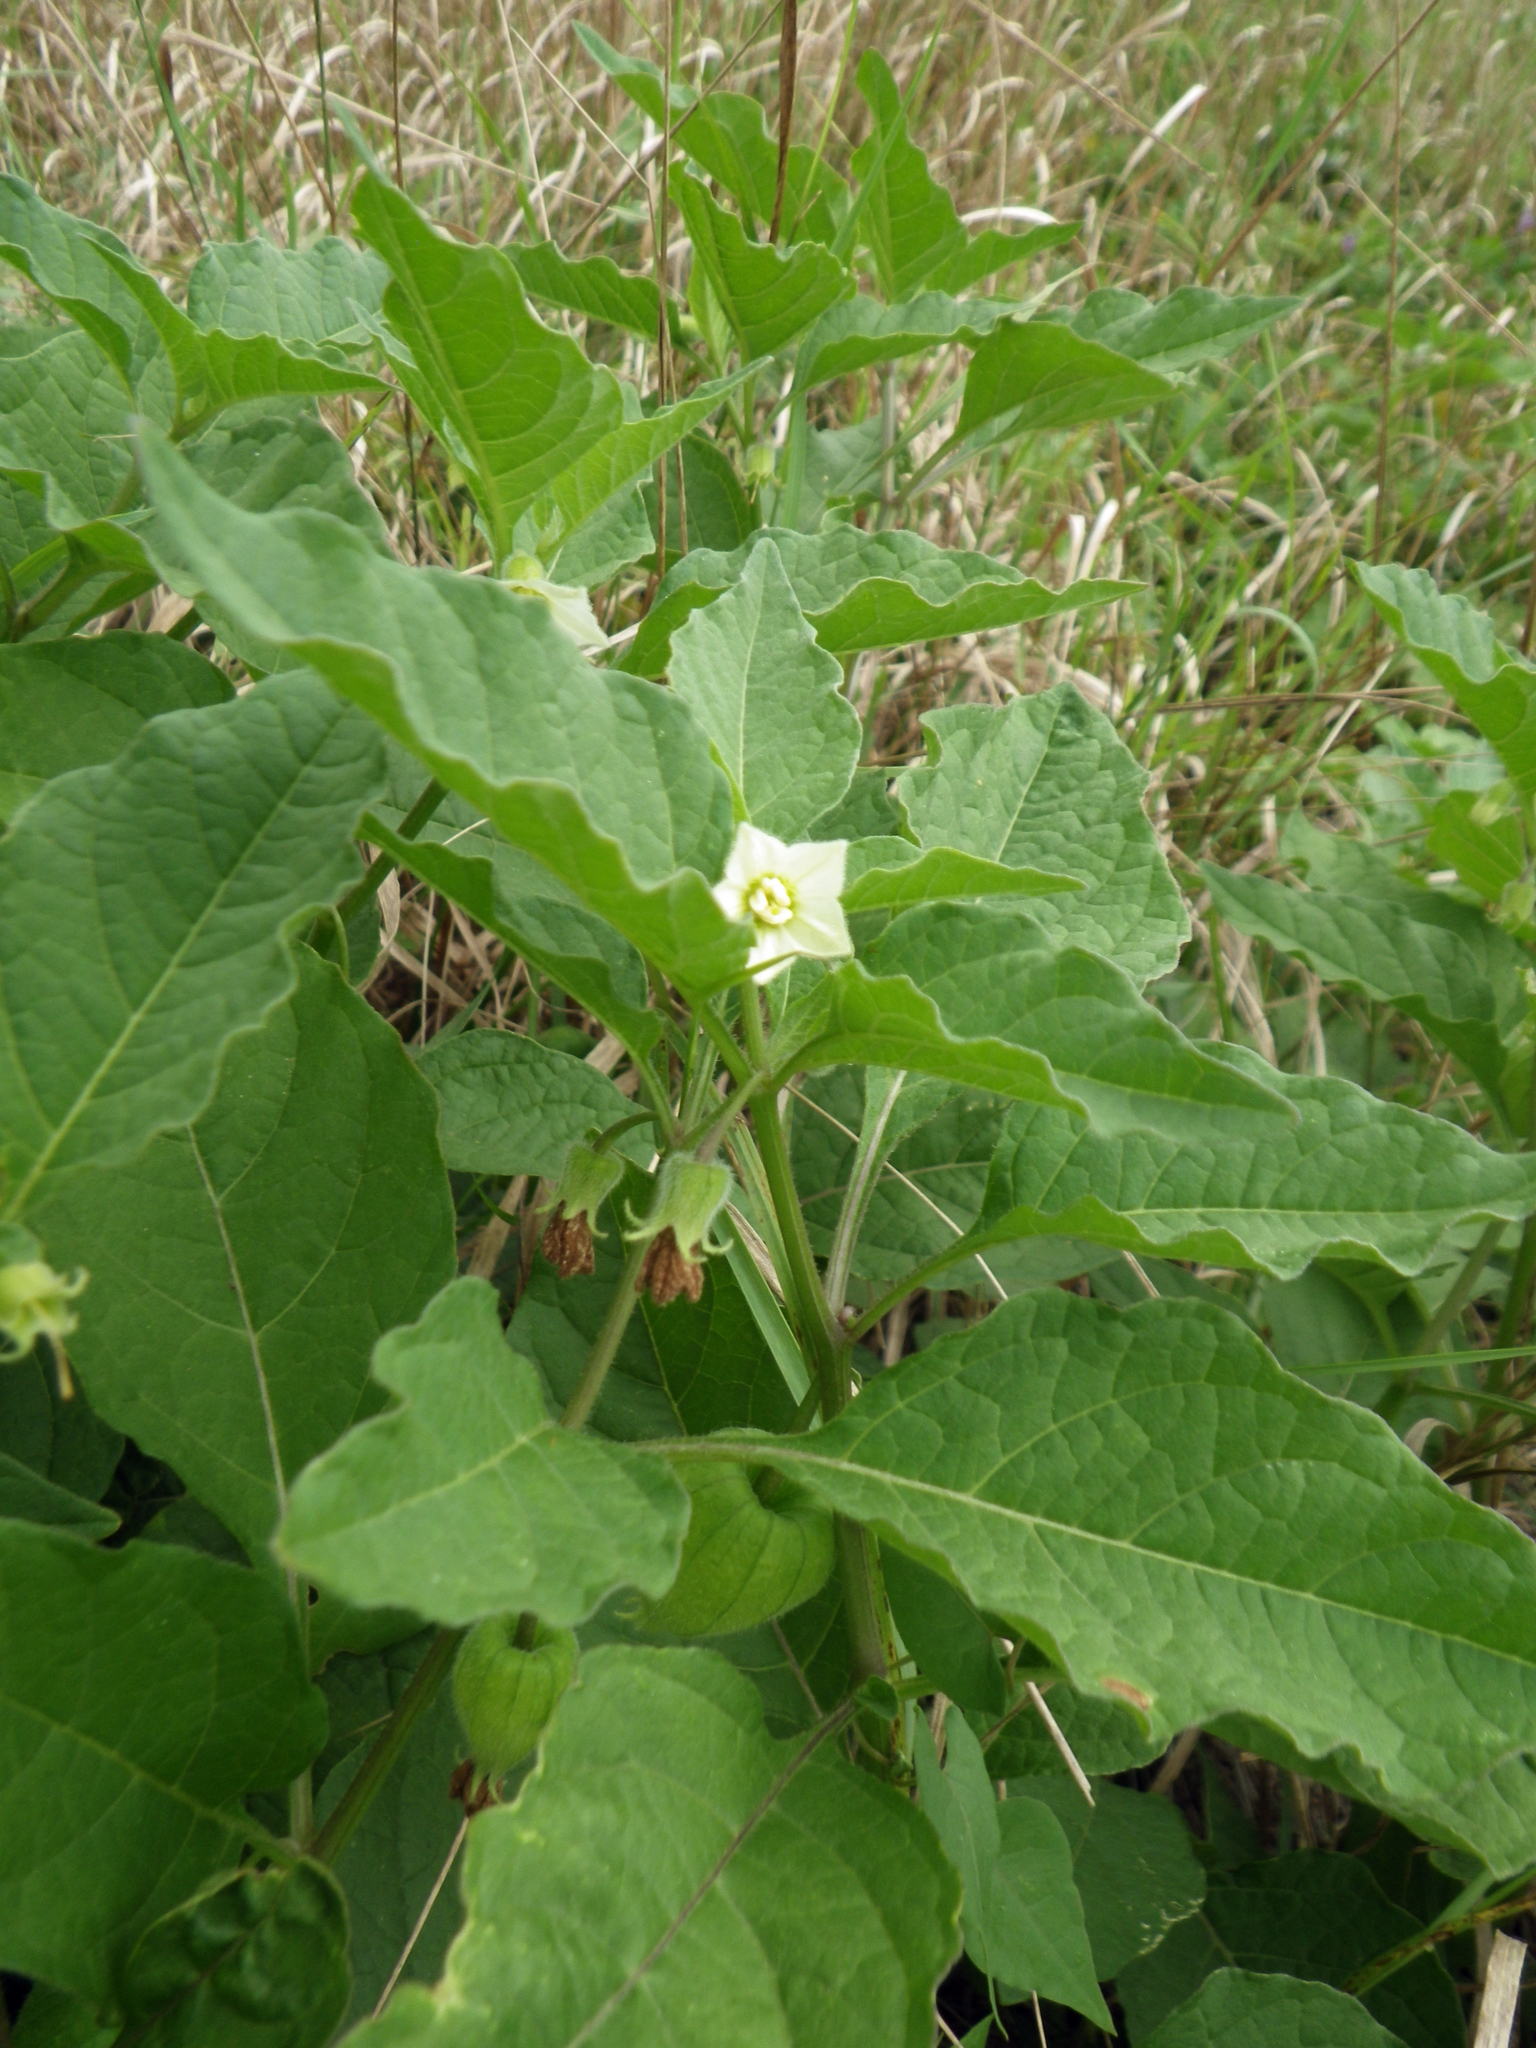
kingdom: Plantae
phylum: Tracheophyta
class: Magnoliopsida
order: Solanales
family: Solanaceae
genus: Alkekengi
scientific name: Alkekengi officinarum
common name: Japanese-lantern
